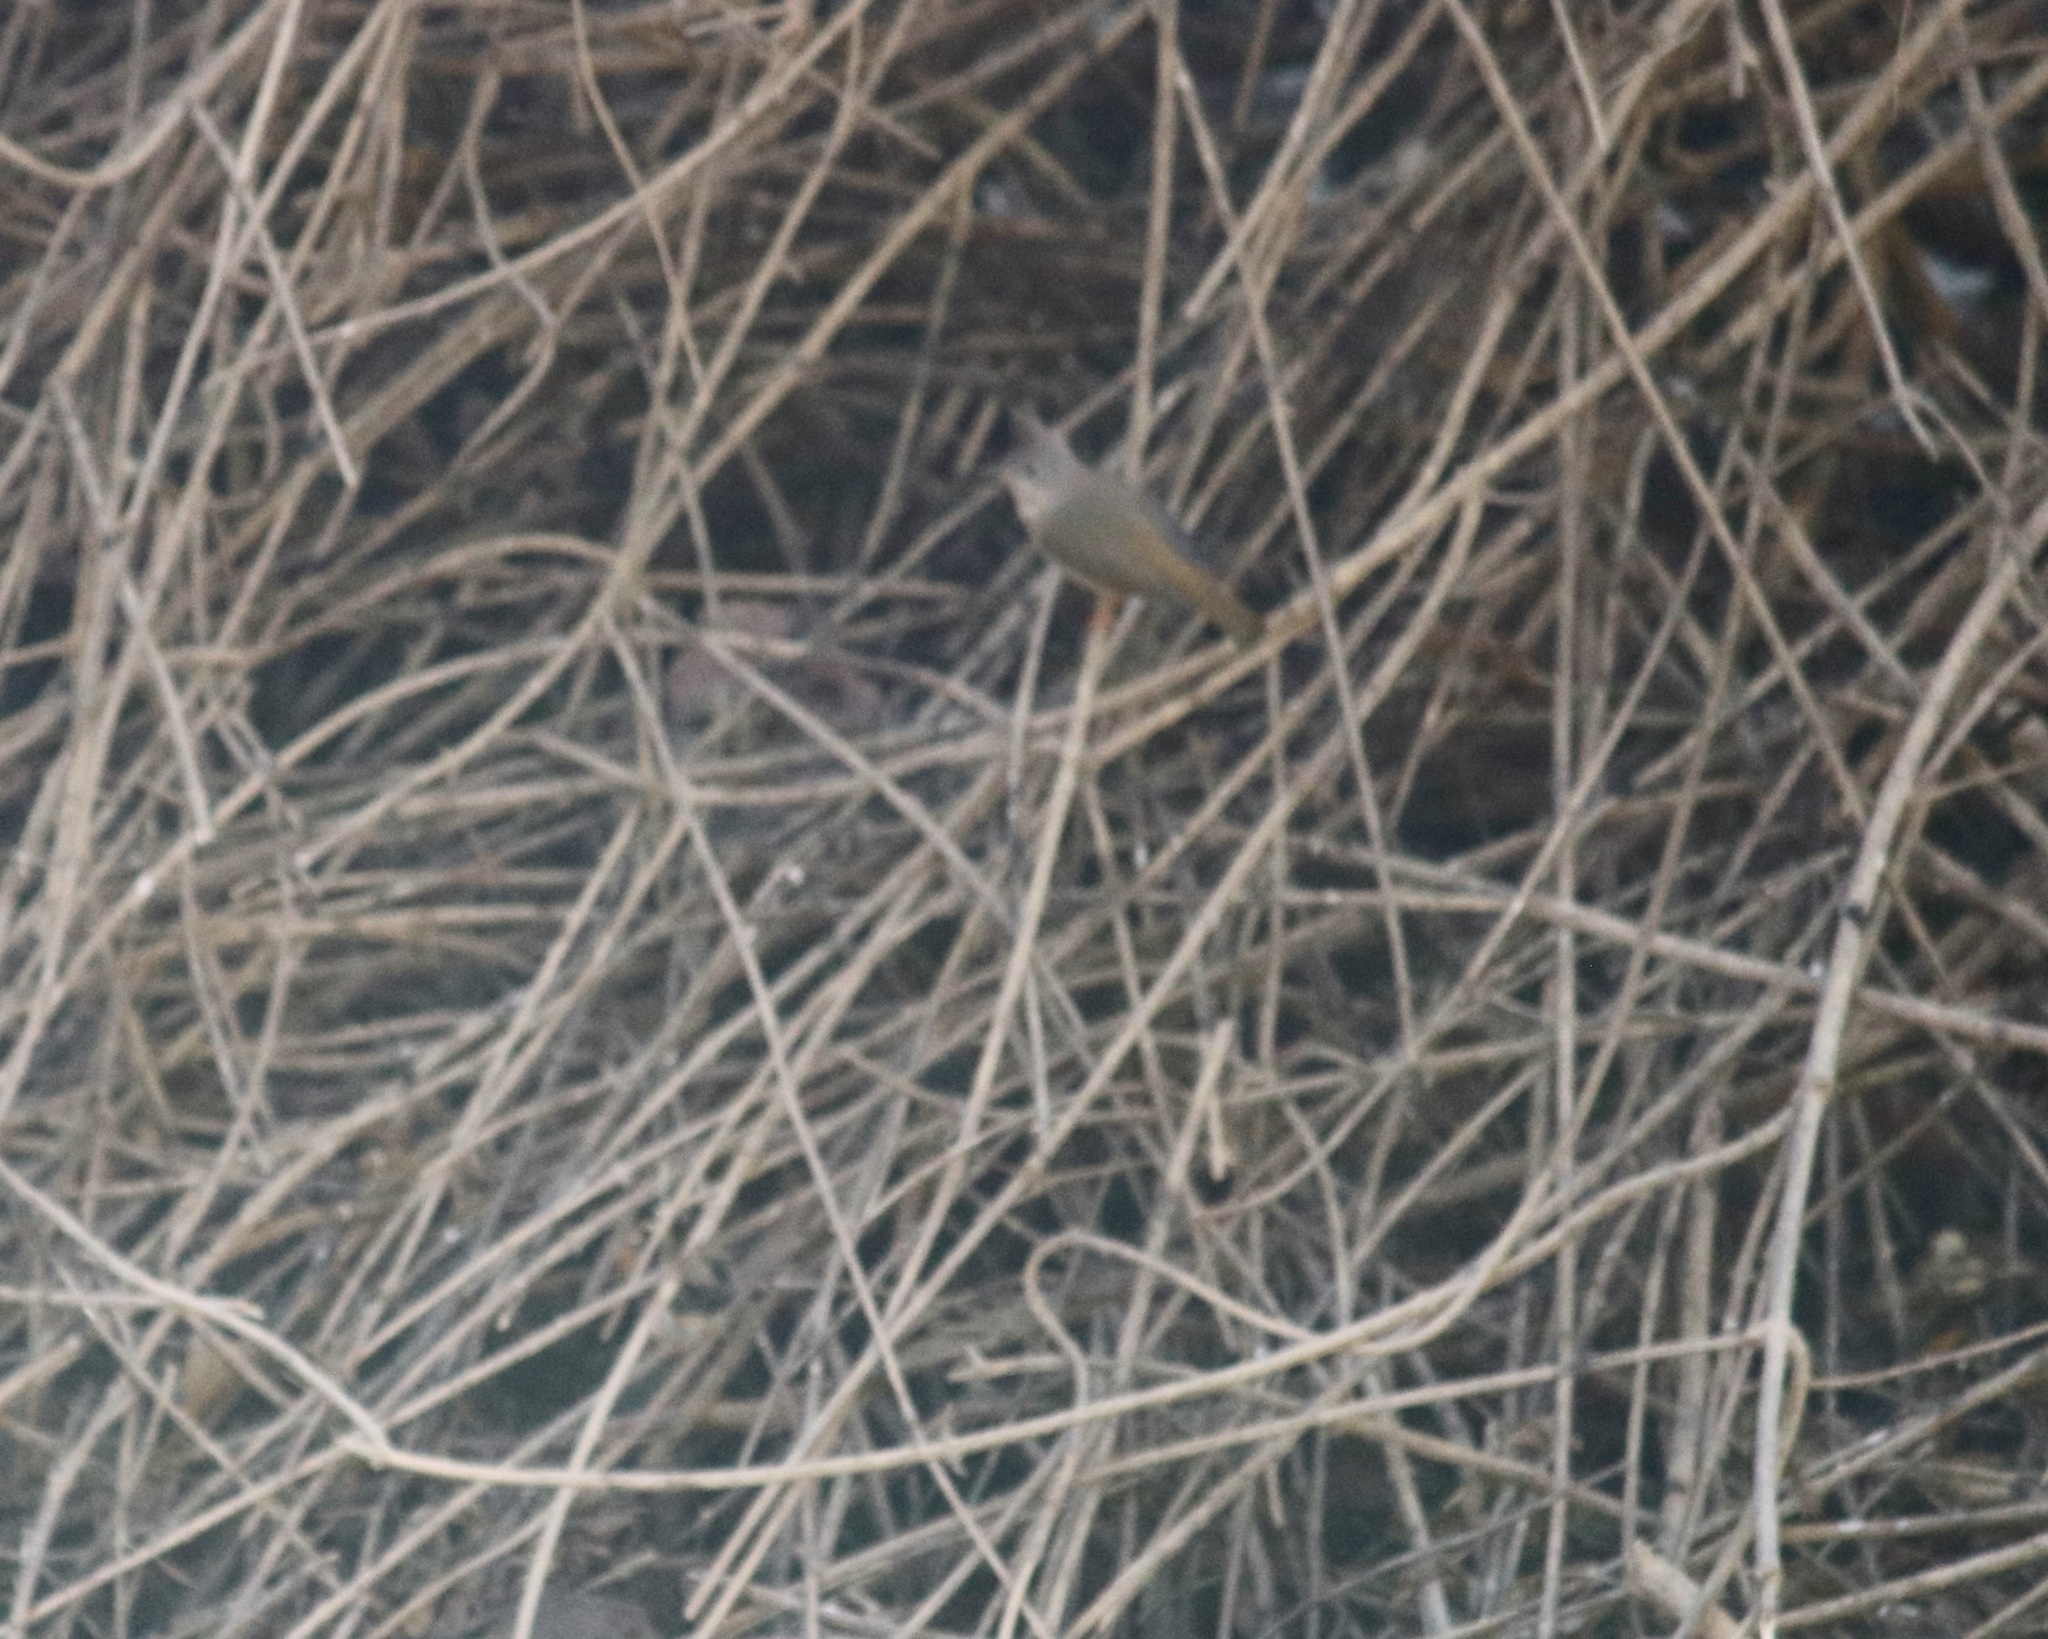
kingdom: Animalia
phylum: Chordata
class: Aves
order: Passeriformes
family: Zosteropidae
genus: Yuhina
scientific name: Yuhina gularis
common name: Stripe-throated yuhina
